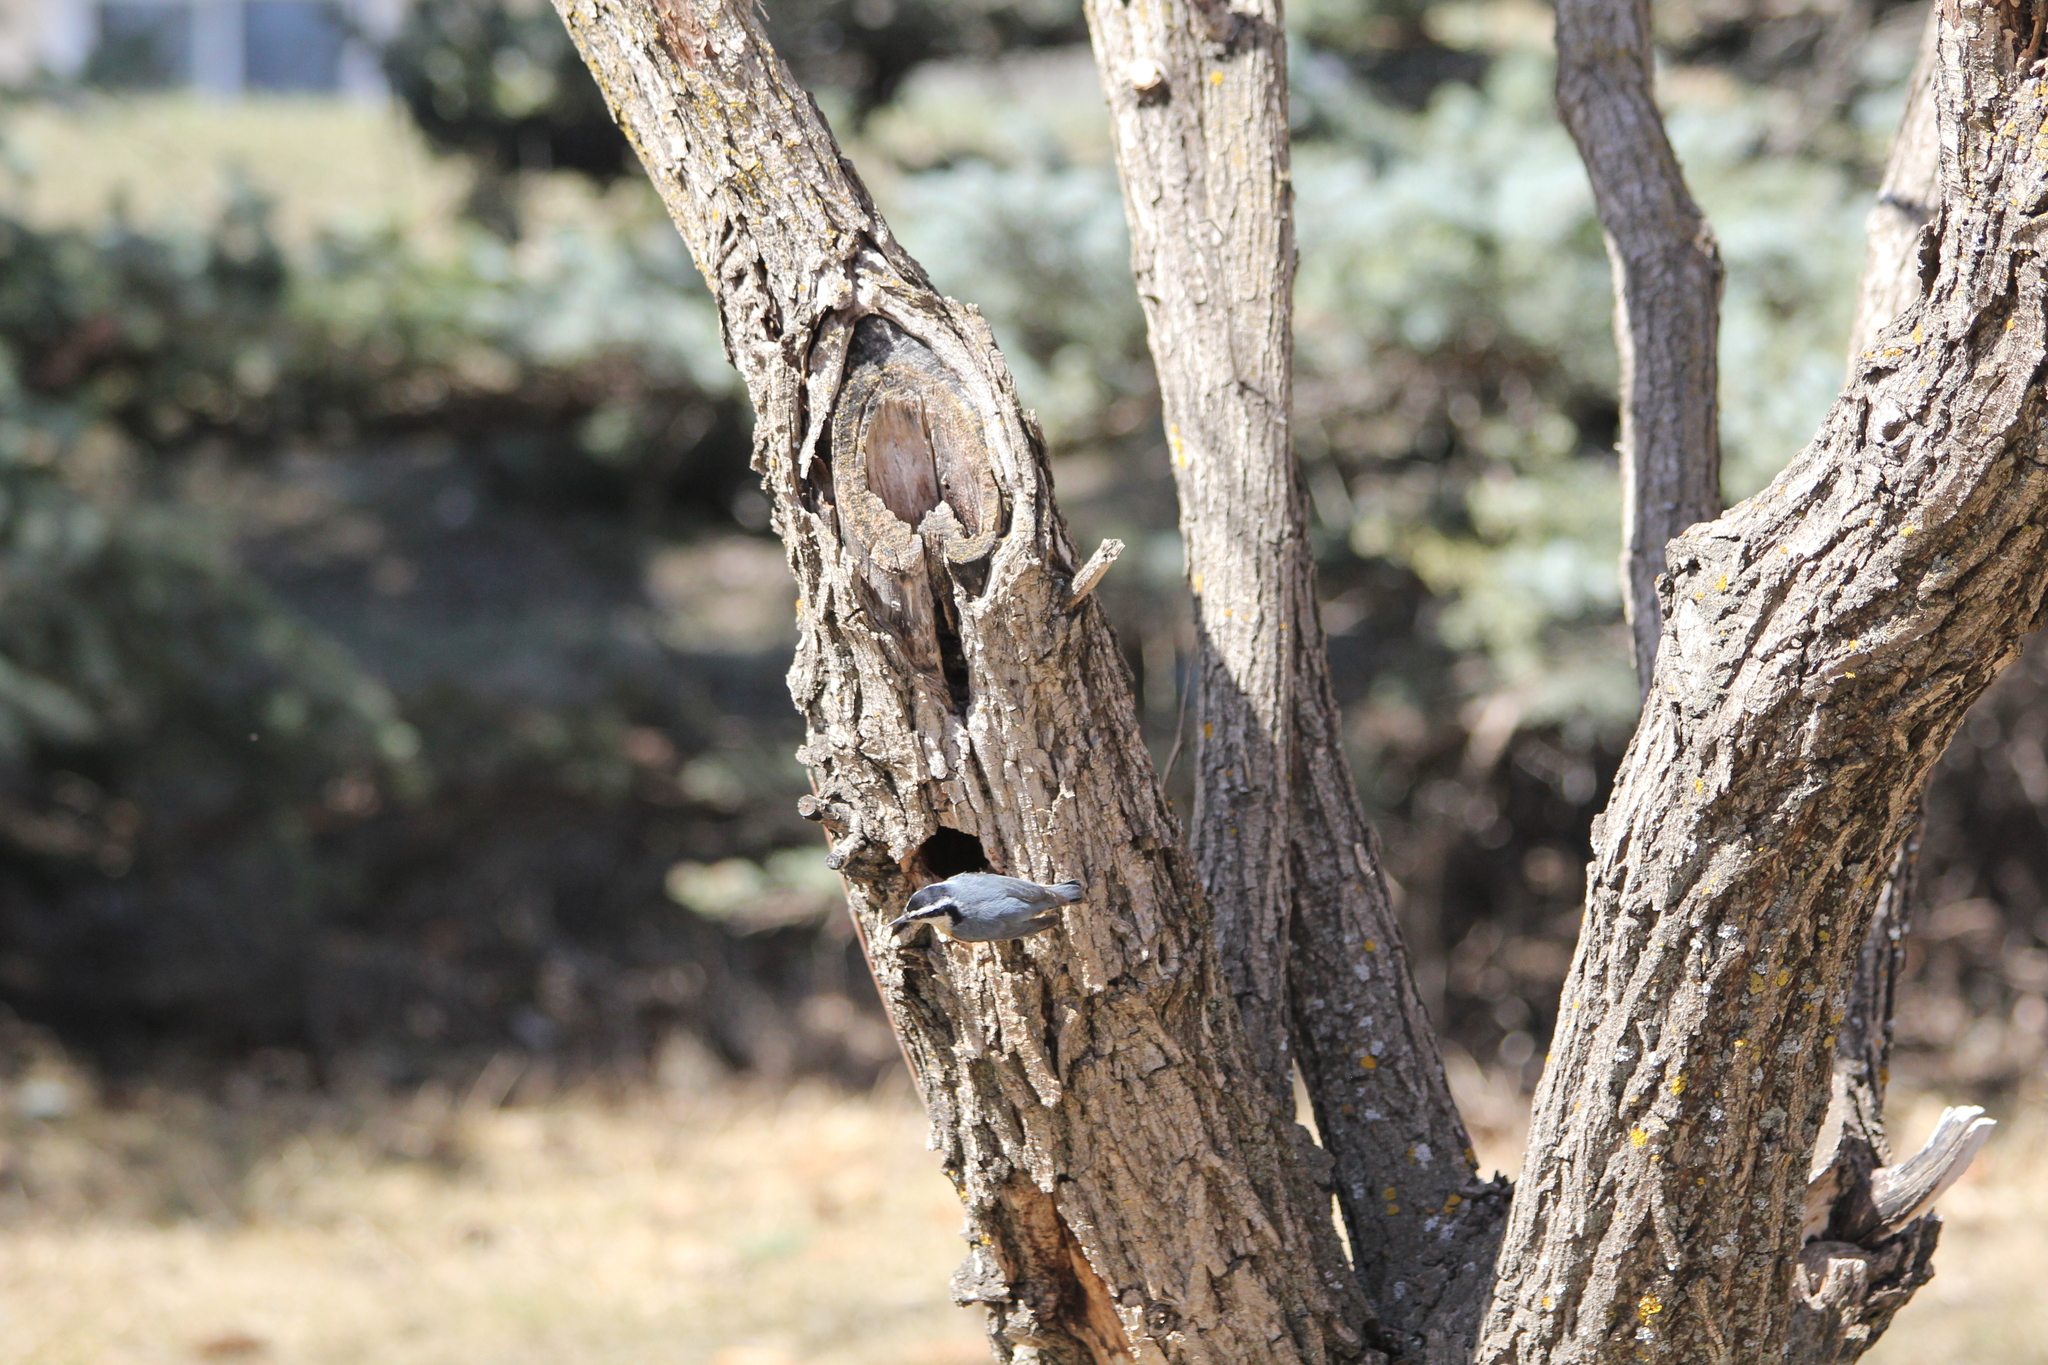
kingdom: Animalia
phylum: Chordata
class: Aves
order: Passeriformes
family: Sittidae
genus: Sitta
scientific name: Sitta canadensis
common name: Red-breasted nuthatch
